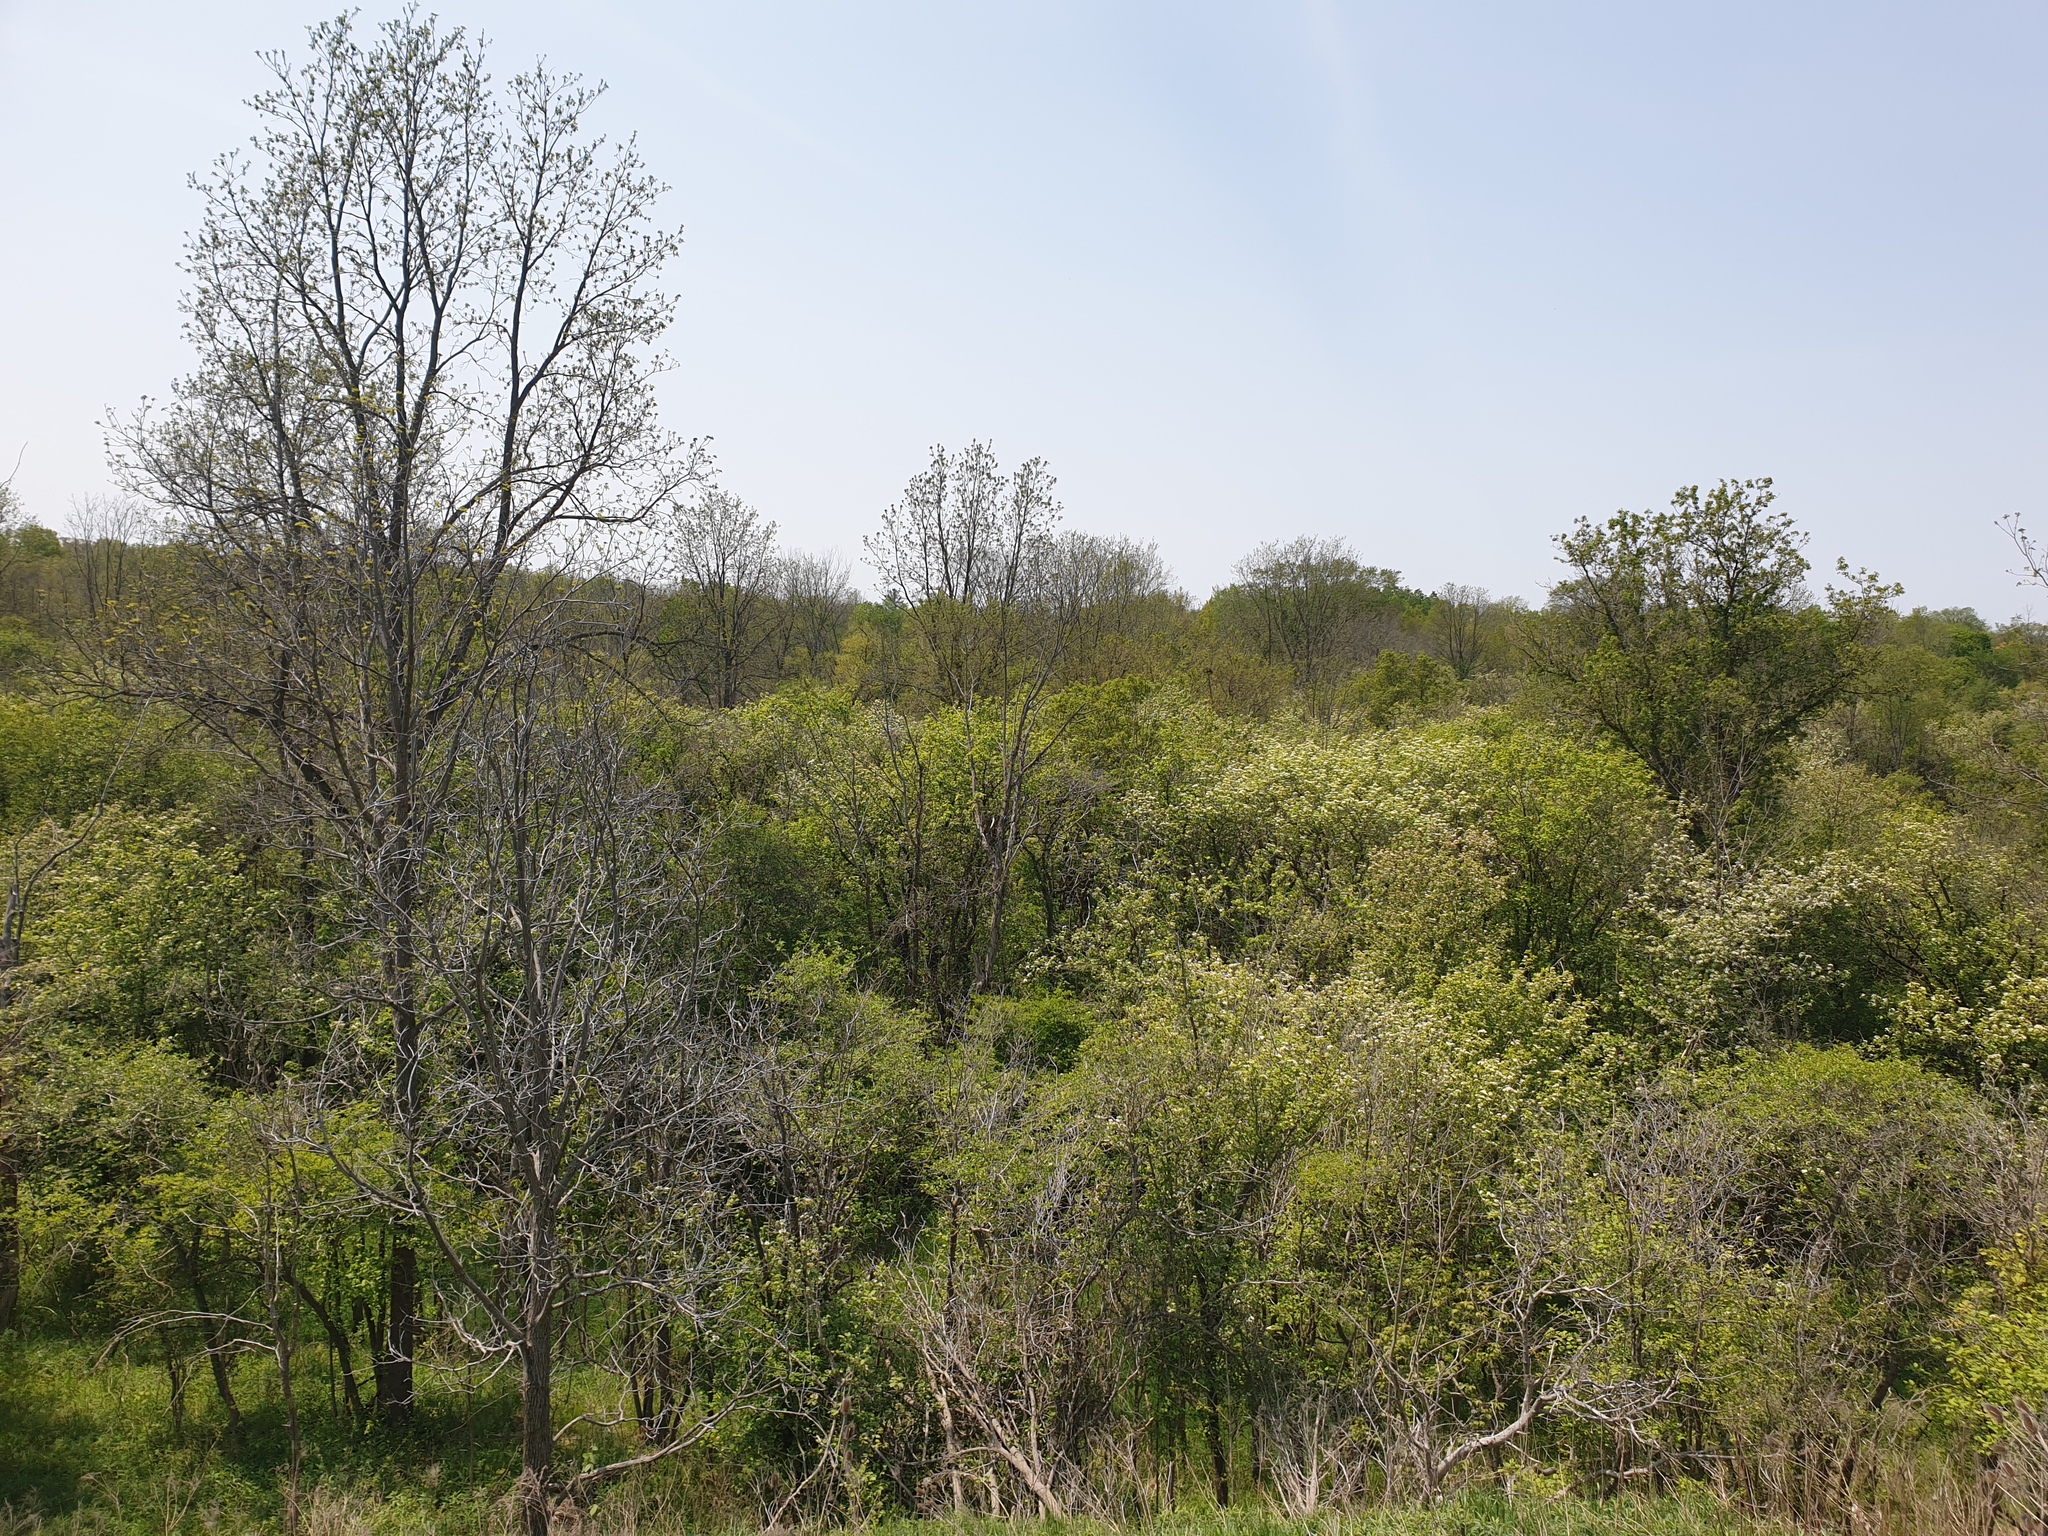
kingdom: Plantae
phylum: Tracheophyta
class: Magnoliopsida
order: Rosales
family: Rosaceae
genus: Crataegus
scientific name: Crataegus succulenta
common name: Fleshy hawthorn
